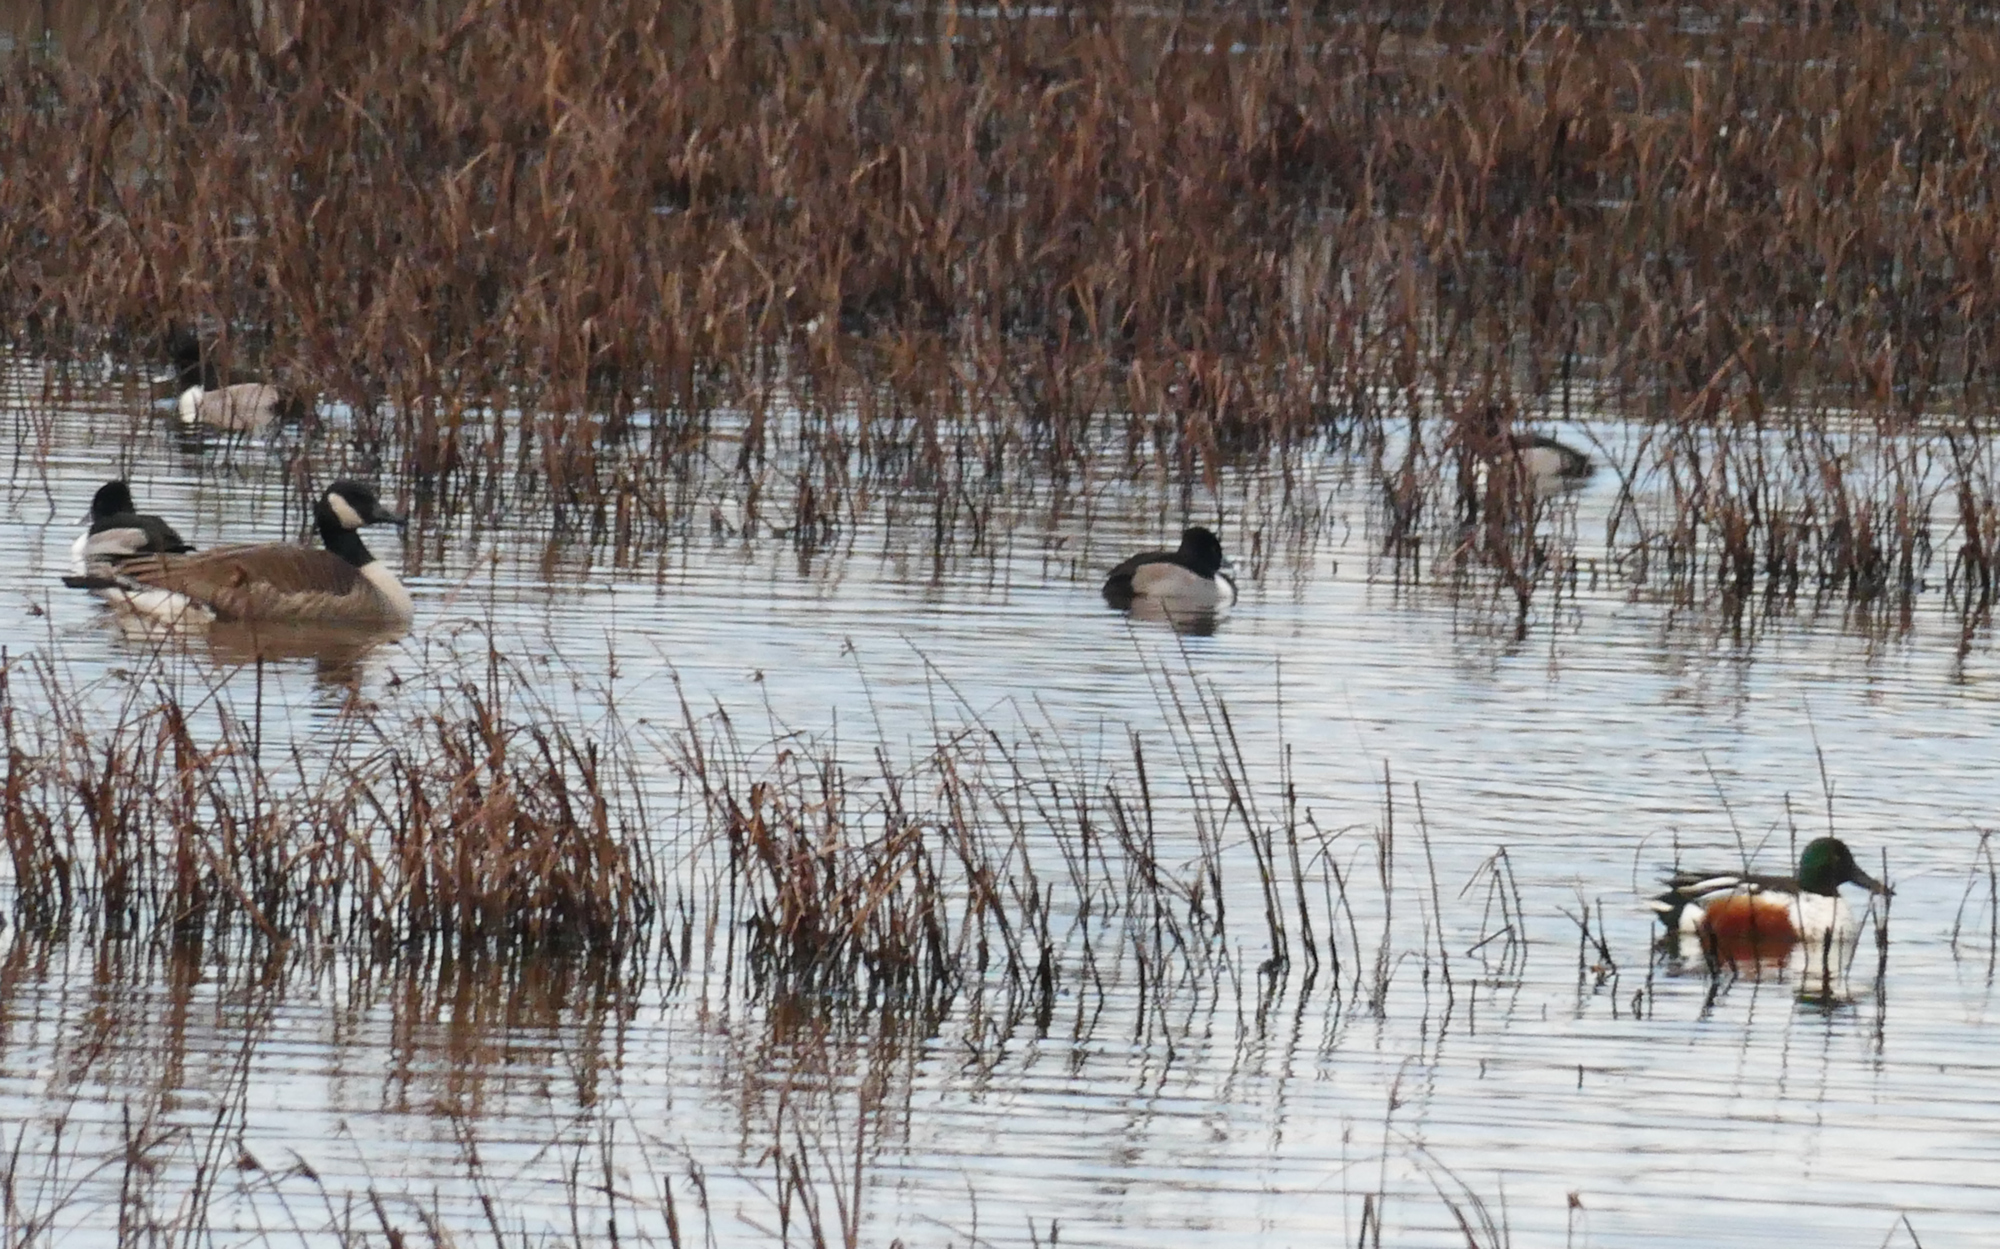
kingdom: Animalia
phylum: Chordata
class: Aves
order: Anseriformes
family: Anatidae
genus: Aythya
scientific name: Aythya collaris
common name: Ring-necked duck
